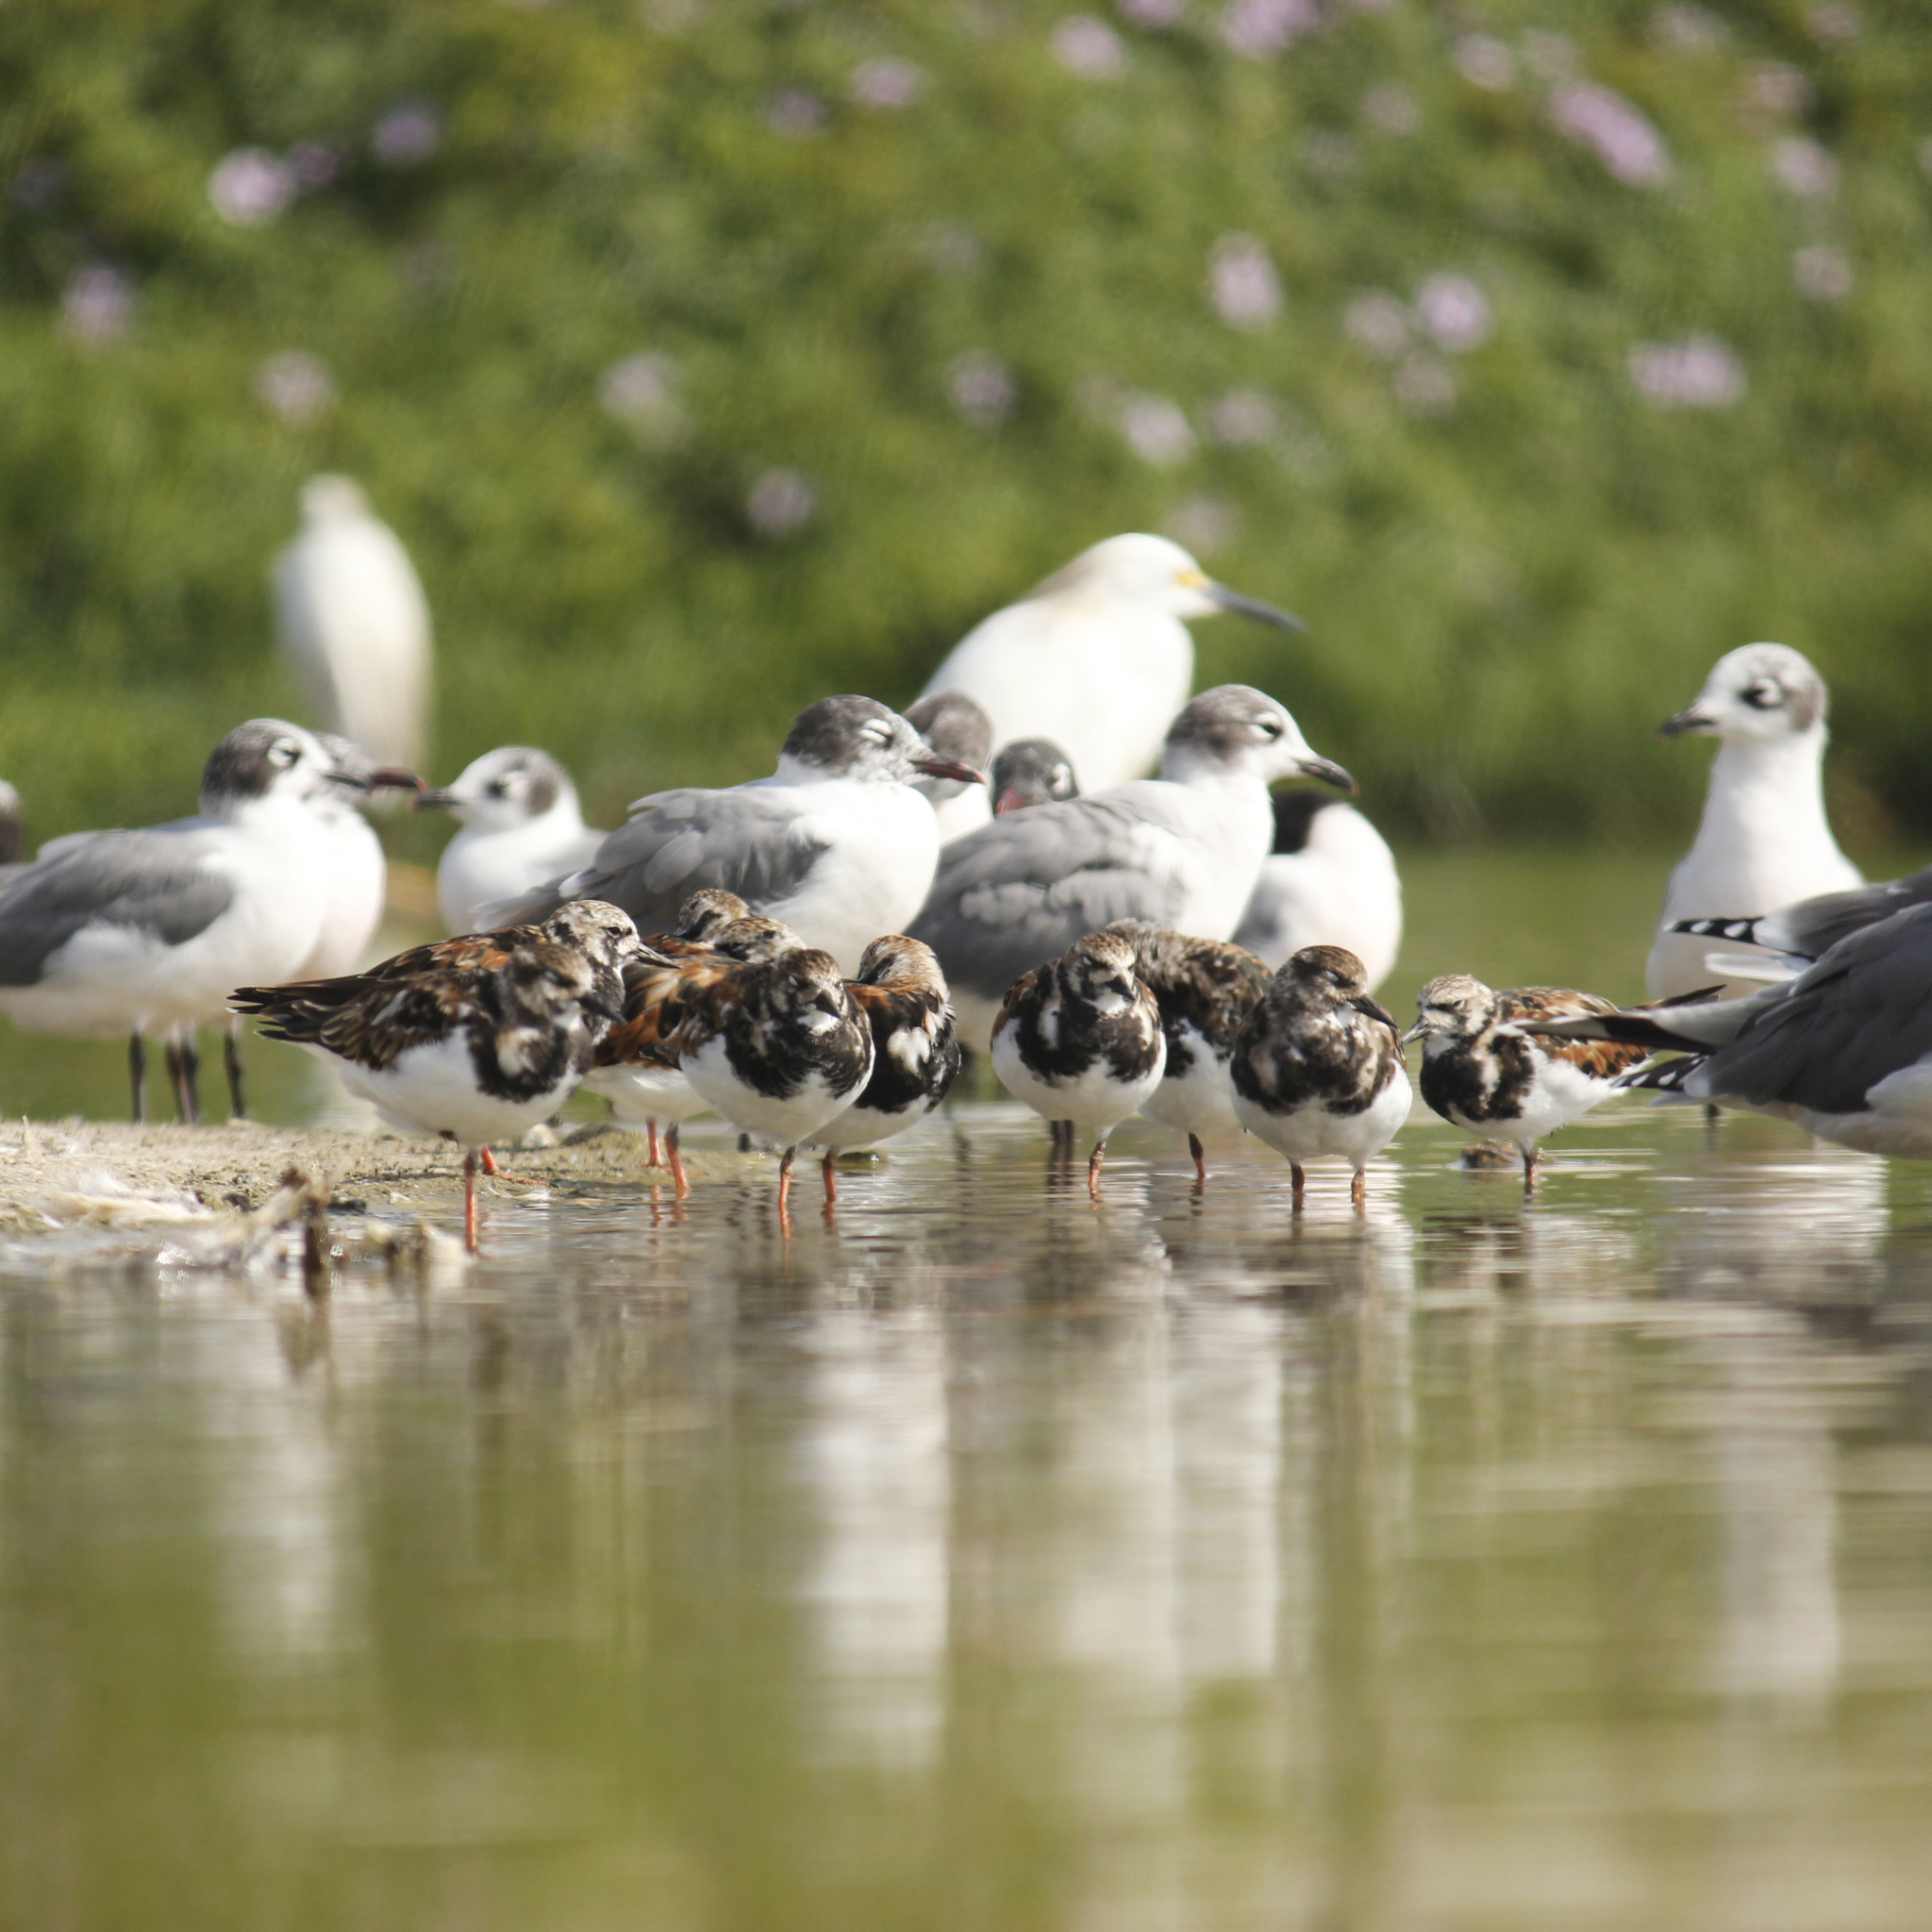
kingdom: Animalia
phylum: Chordata
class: Aves
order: Charadriiformes
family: Scolopacidae
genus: Arenaria
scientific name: Arenaria interpres
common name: Ruddy turnstone
